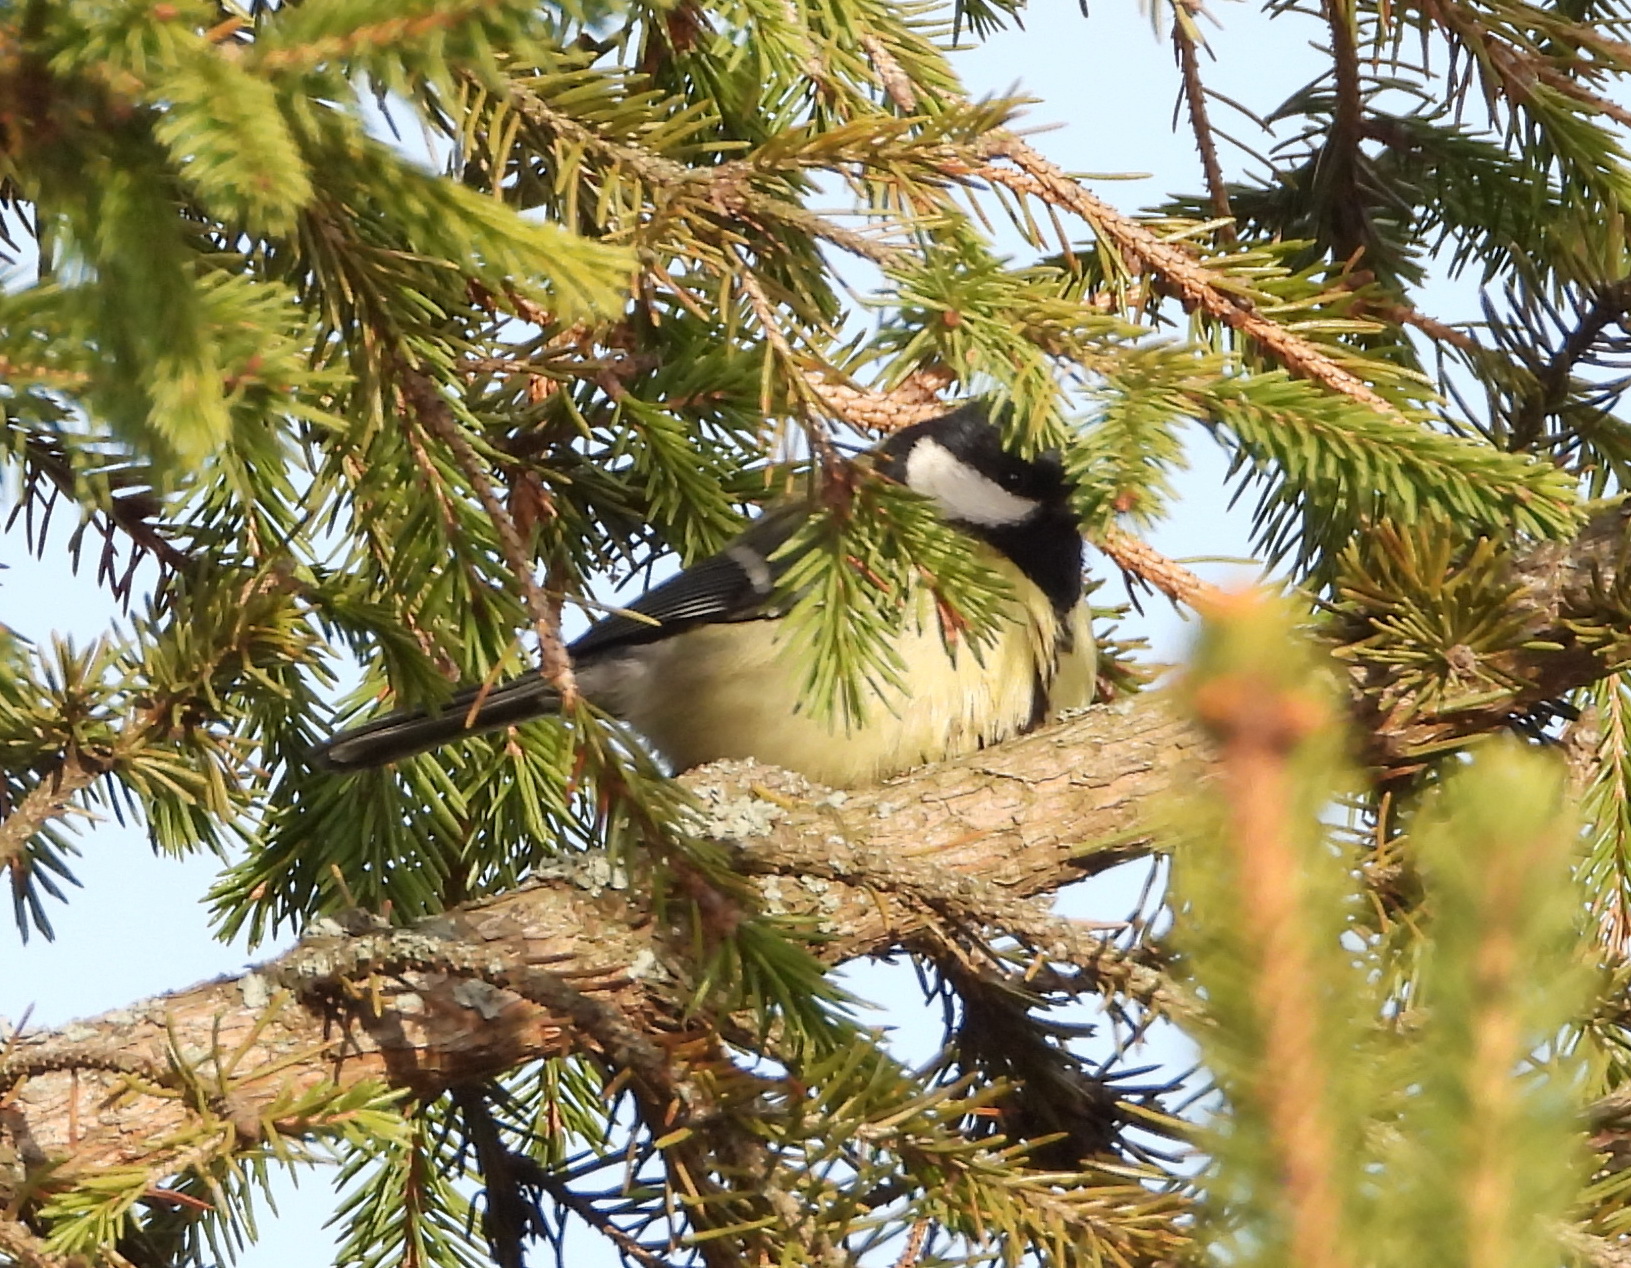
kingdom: Animalia
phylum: Chordata
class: Aves
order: Passeriformes
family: Paridae
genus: Parus
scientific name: Parus major
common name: Great tit
